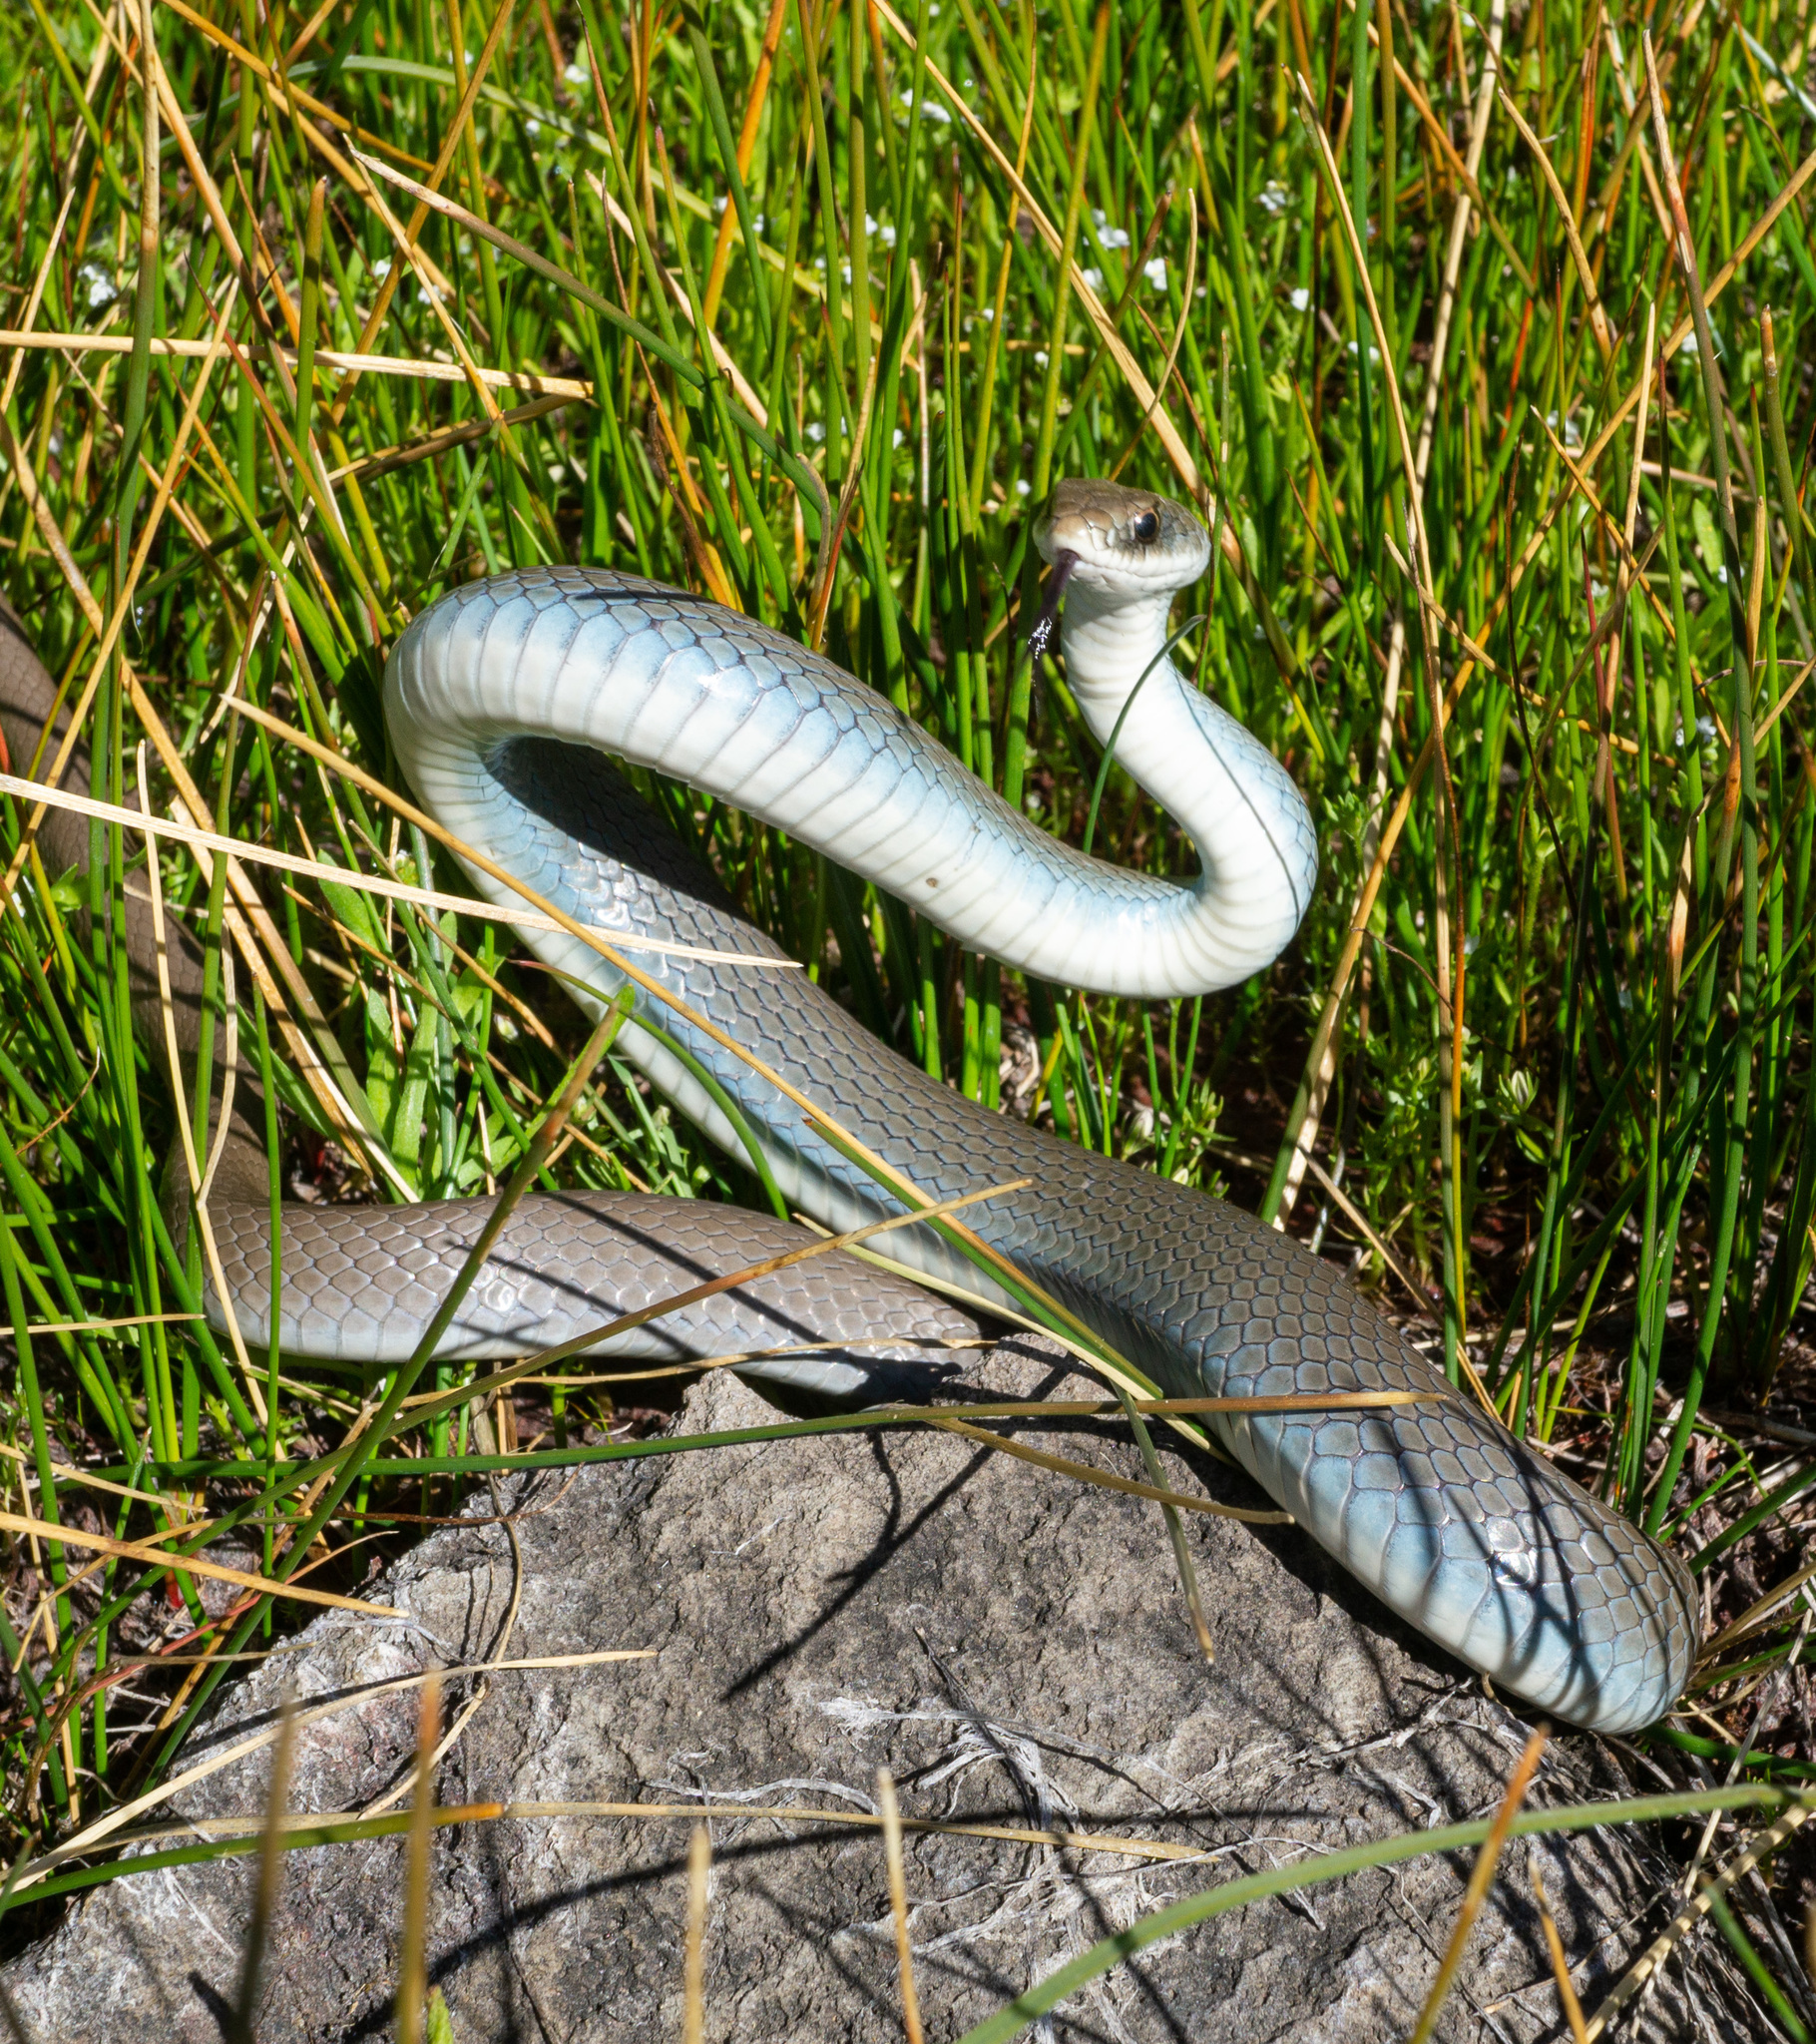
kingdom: Animalia
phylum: Chordata
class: Squamata
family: Colubridae
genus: Coluber
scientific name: Coluber constrictor
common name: Eastern racer
